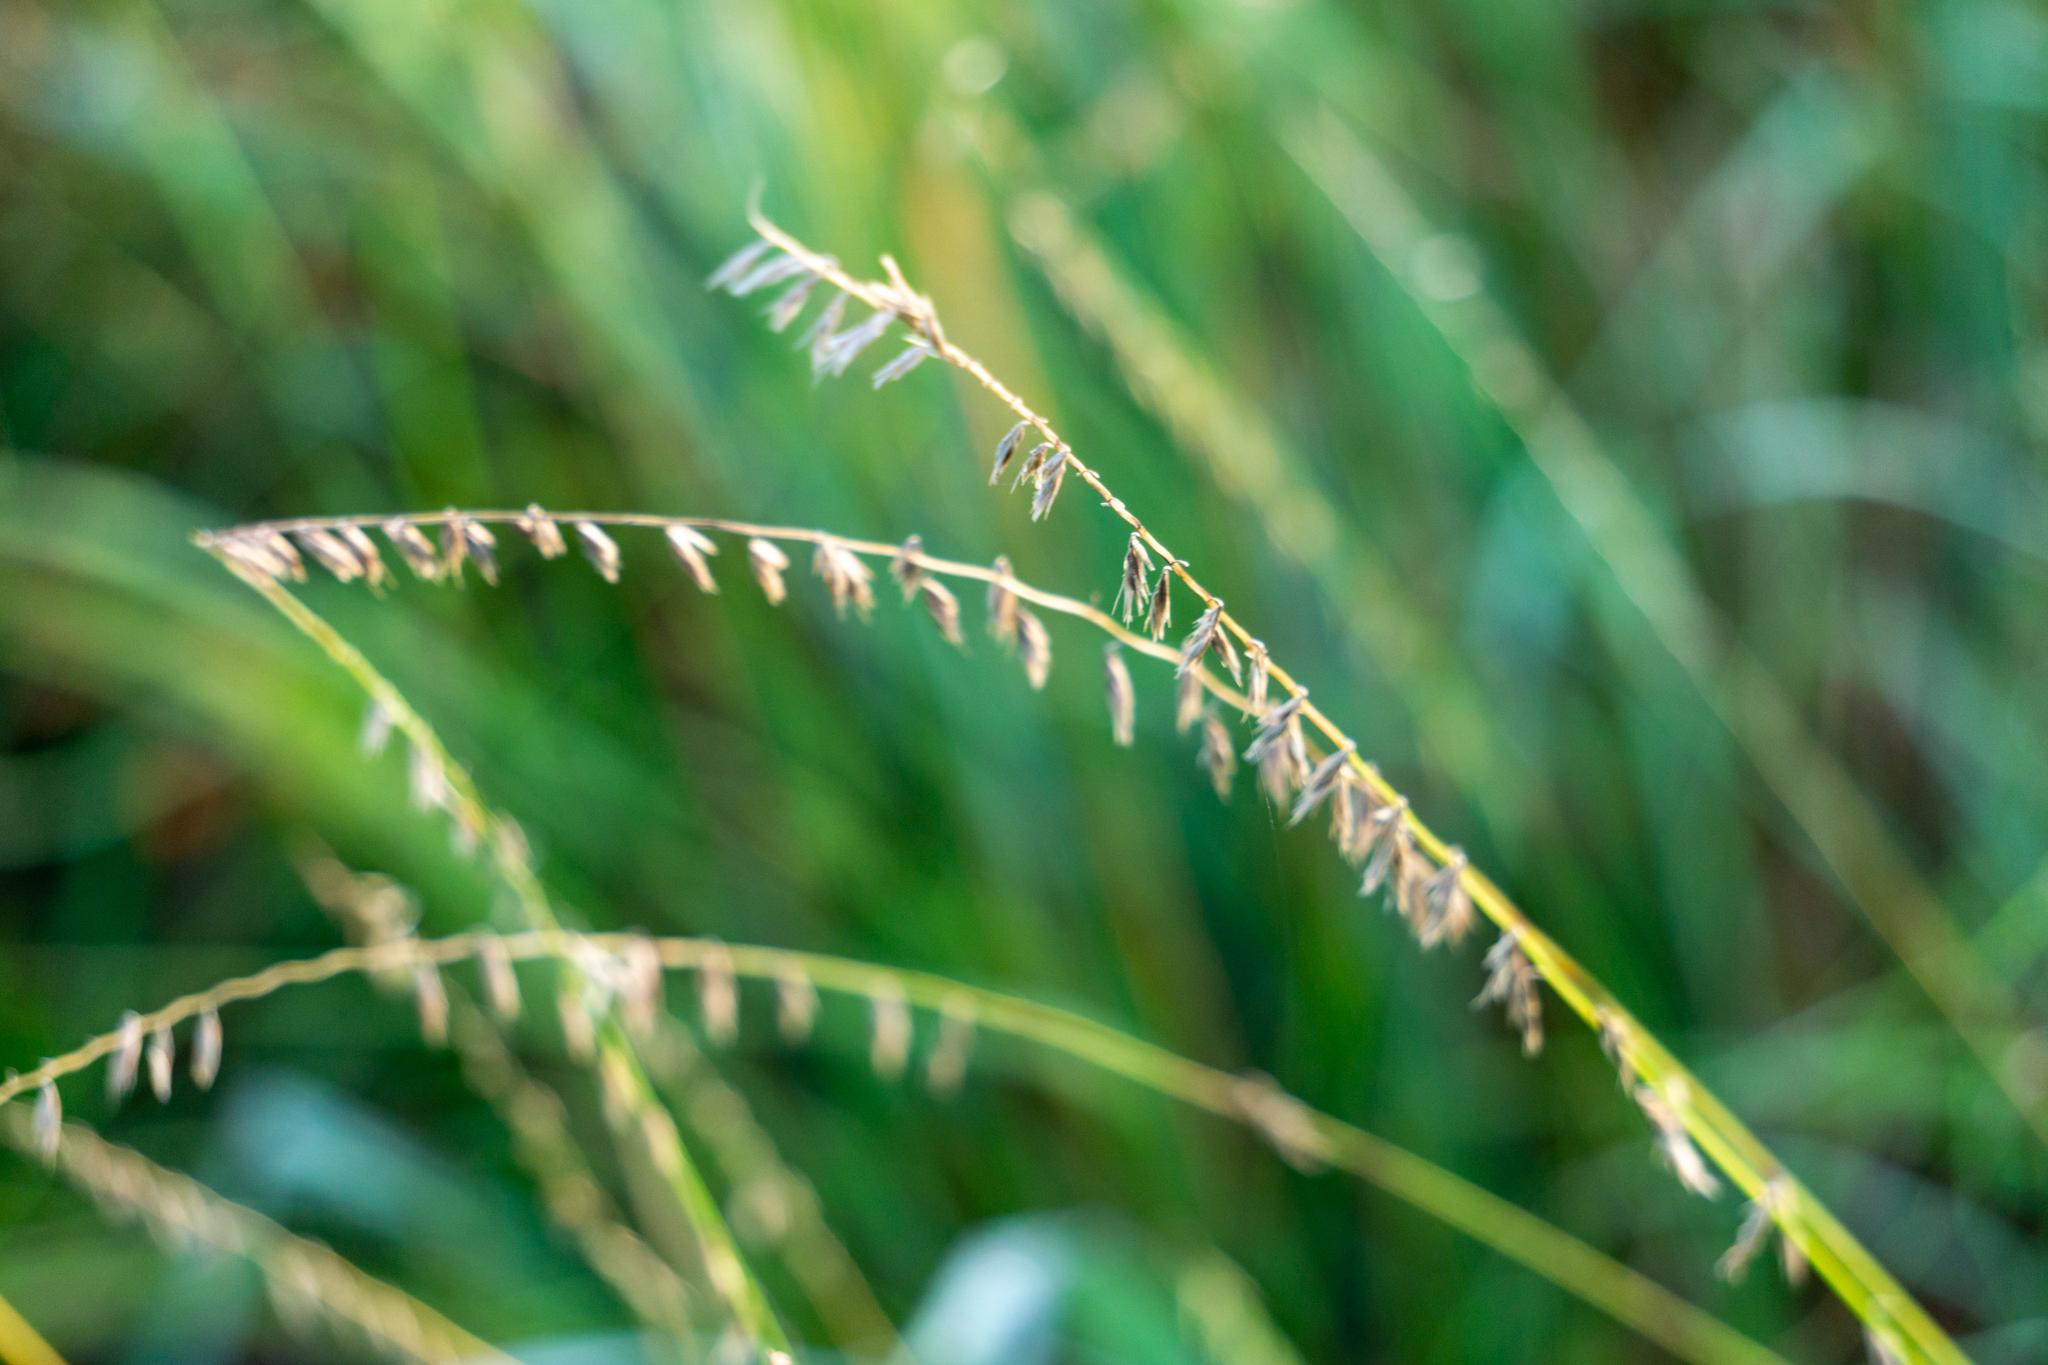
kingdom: Plantae
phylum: Tracheophyta
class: Liliopsida
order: Poales
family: Poaceae
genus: Bouteloua
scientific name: Bouteloua curtipendula
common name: Side-oats grama
